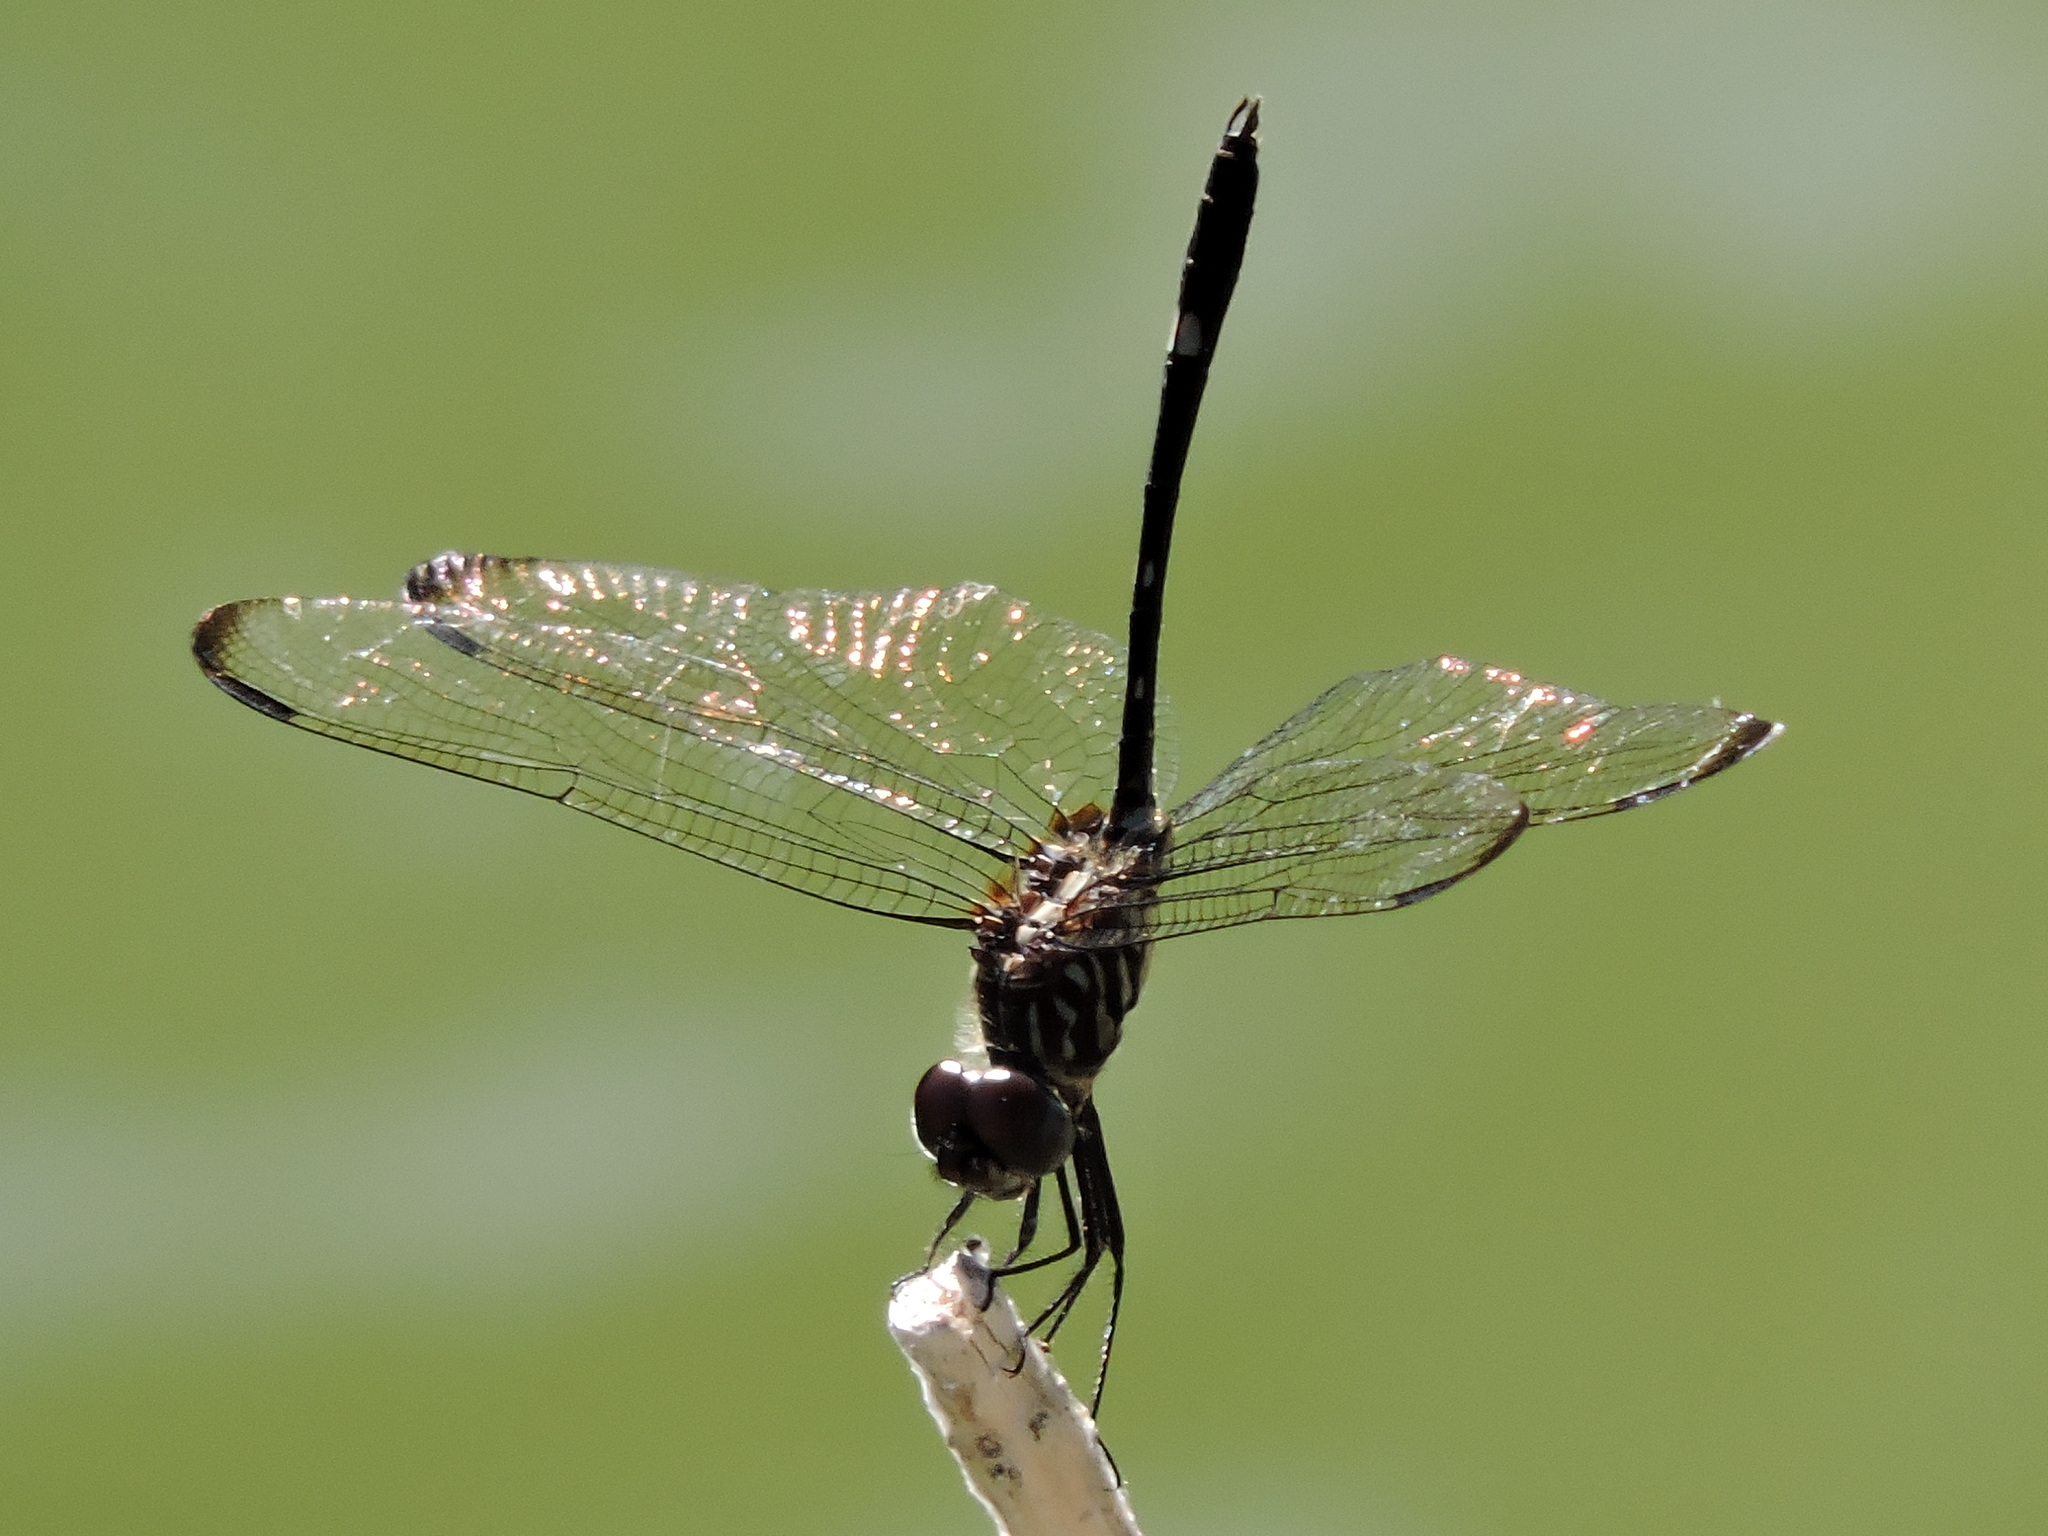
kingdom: Animalia
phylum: Arthropoda
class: Insecta
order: Odonata
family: Libellulidae
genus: Dythemis
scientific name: Dythemis velox
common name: Swift setwing
